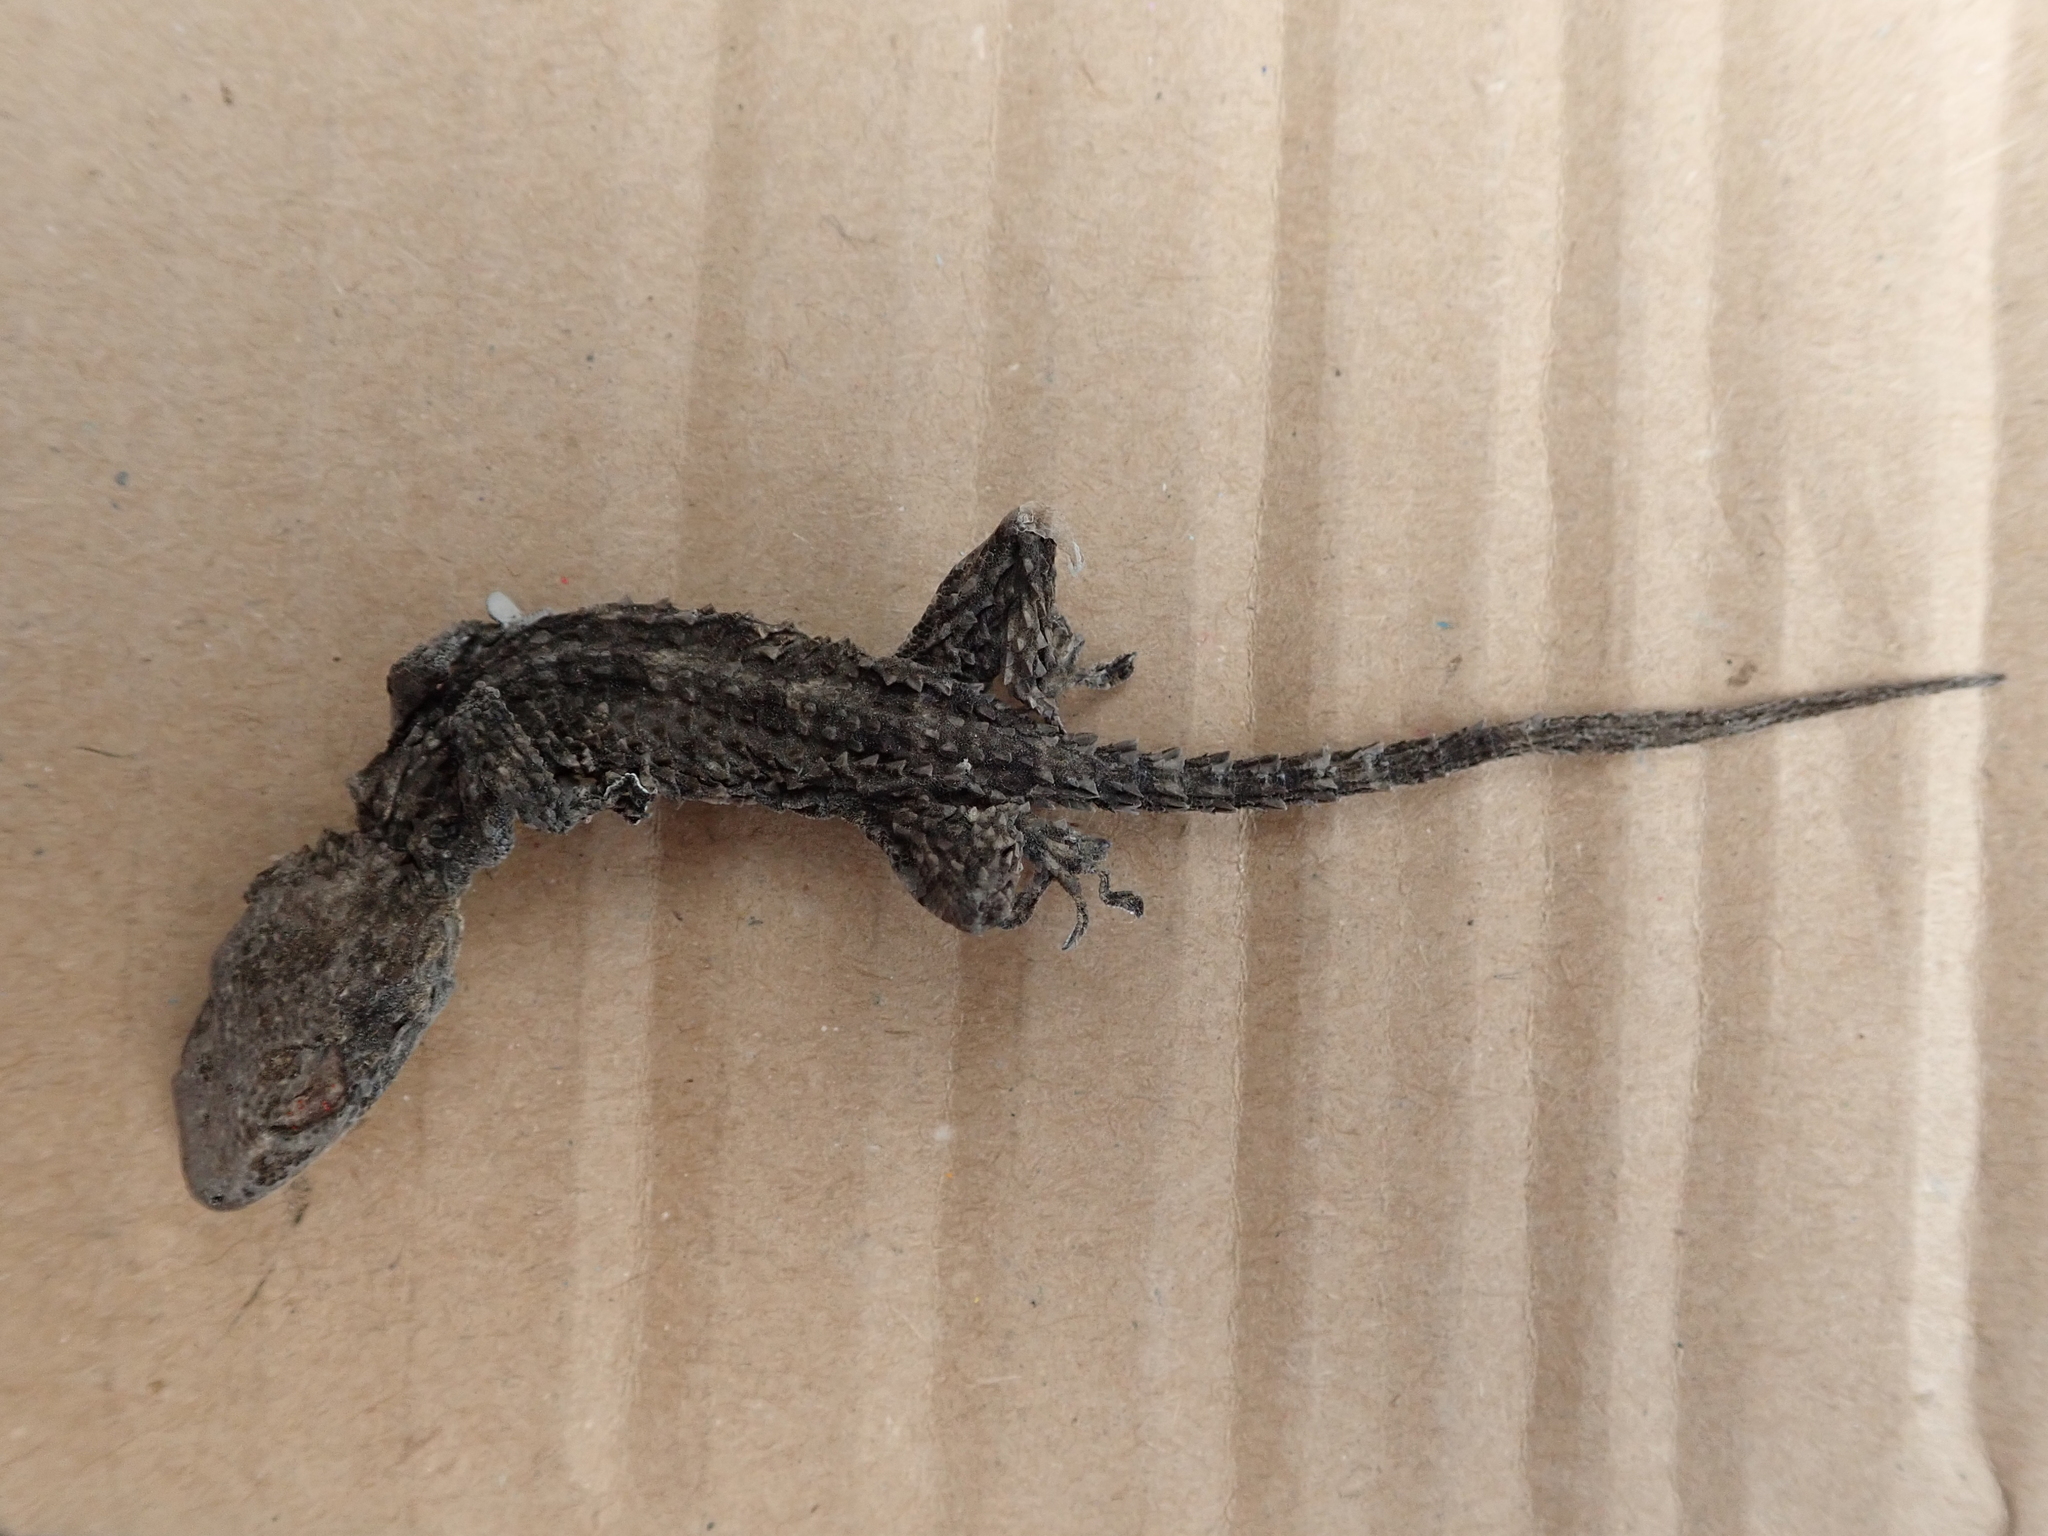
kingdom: Animalia
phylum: Chordata
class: Squamata
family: Phyllodactylidae
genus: Tarentola
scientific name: Tarentola mauritanica
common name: Moorish gecko
